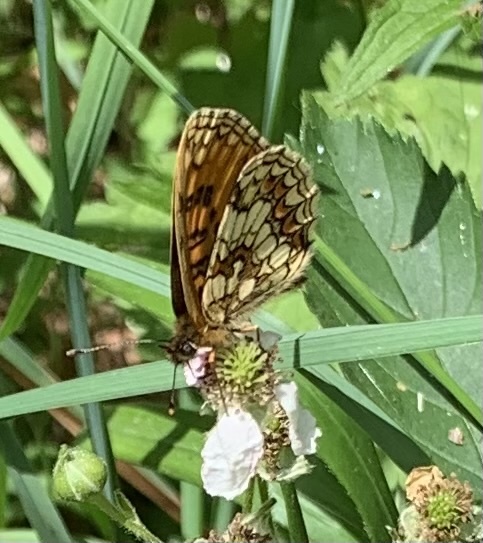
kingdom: Animalia
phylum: Arthropoda
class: Insecta
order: Lepidoptera
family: Nymphalidae
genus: Melitaea
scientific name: Melitaea athalia
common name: Heath fritillary
